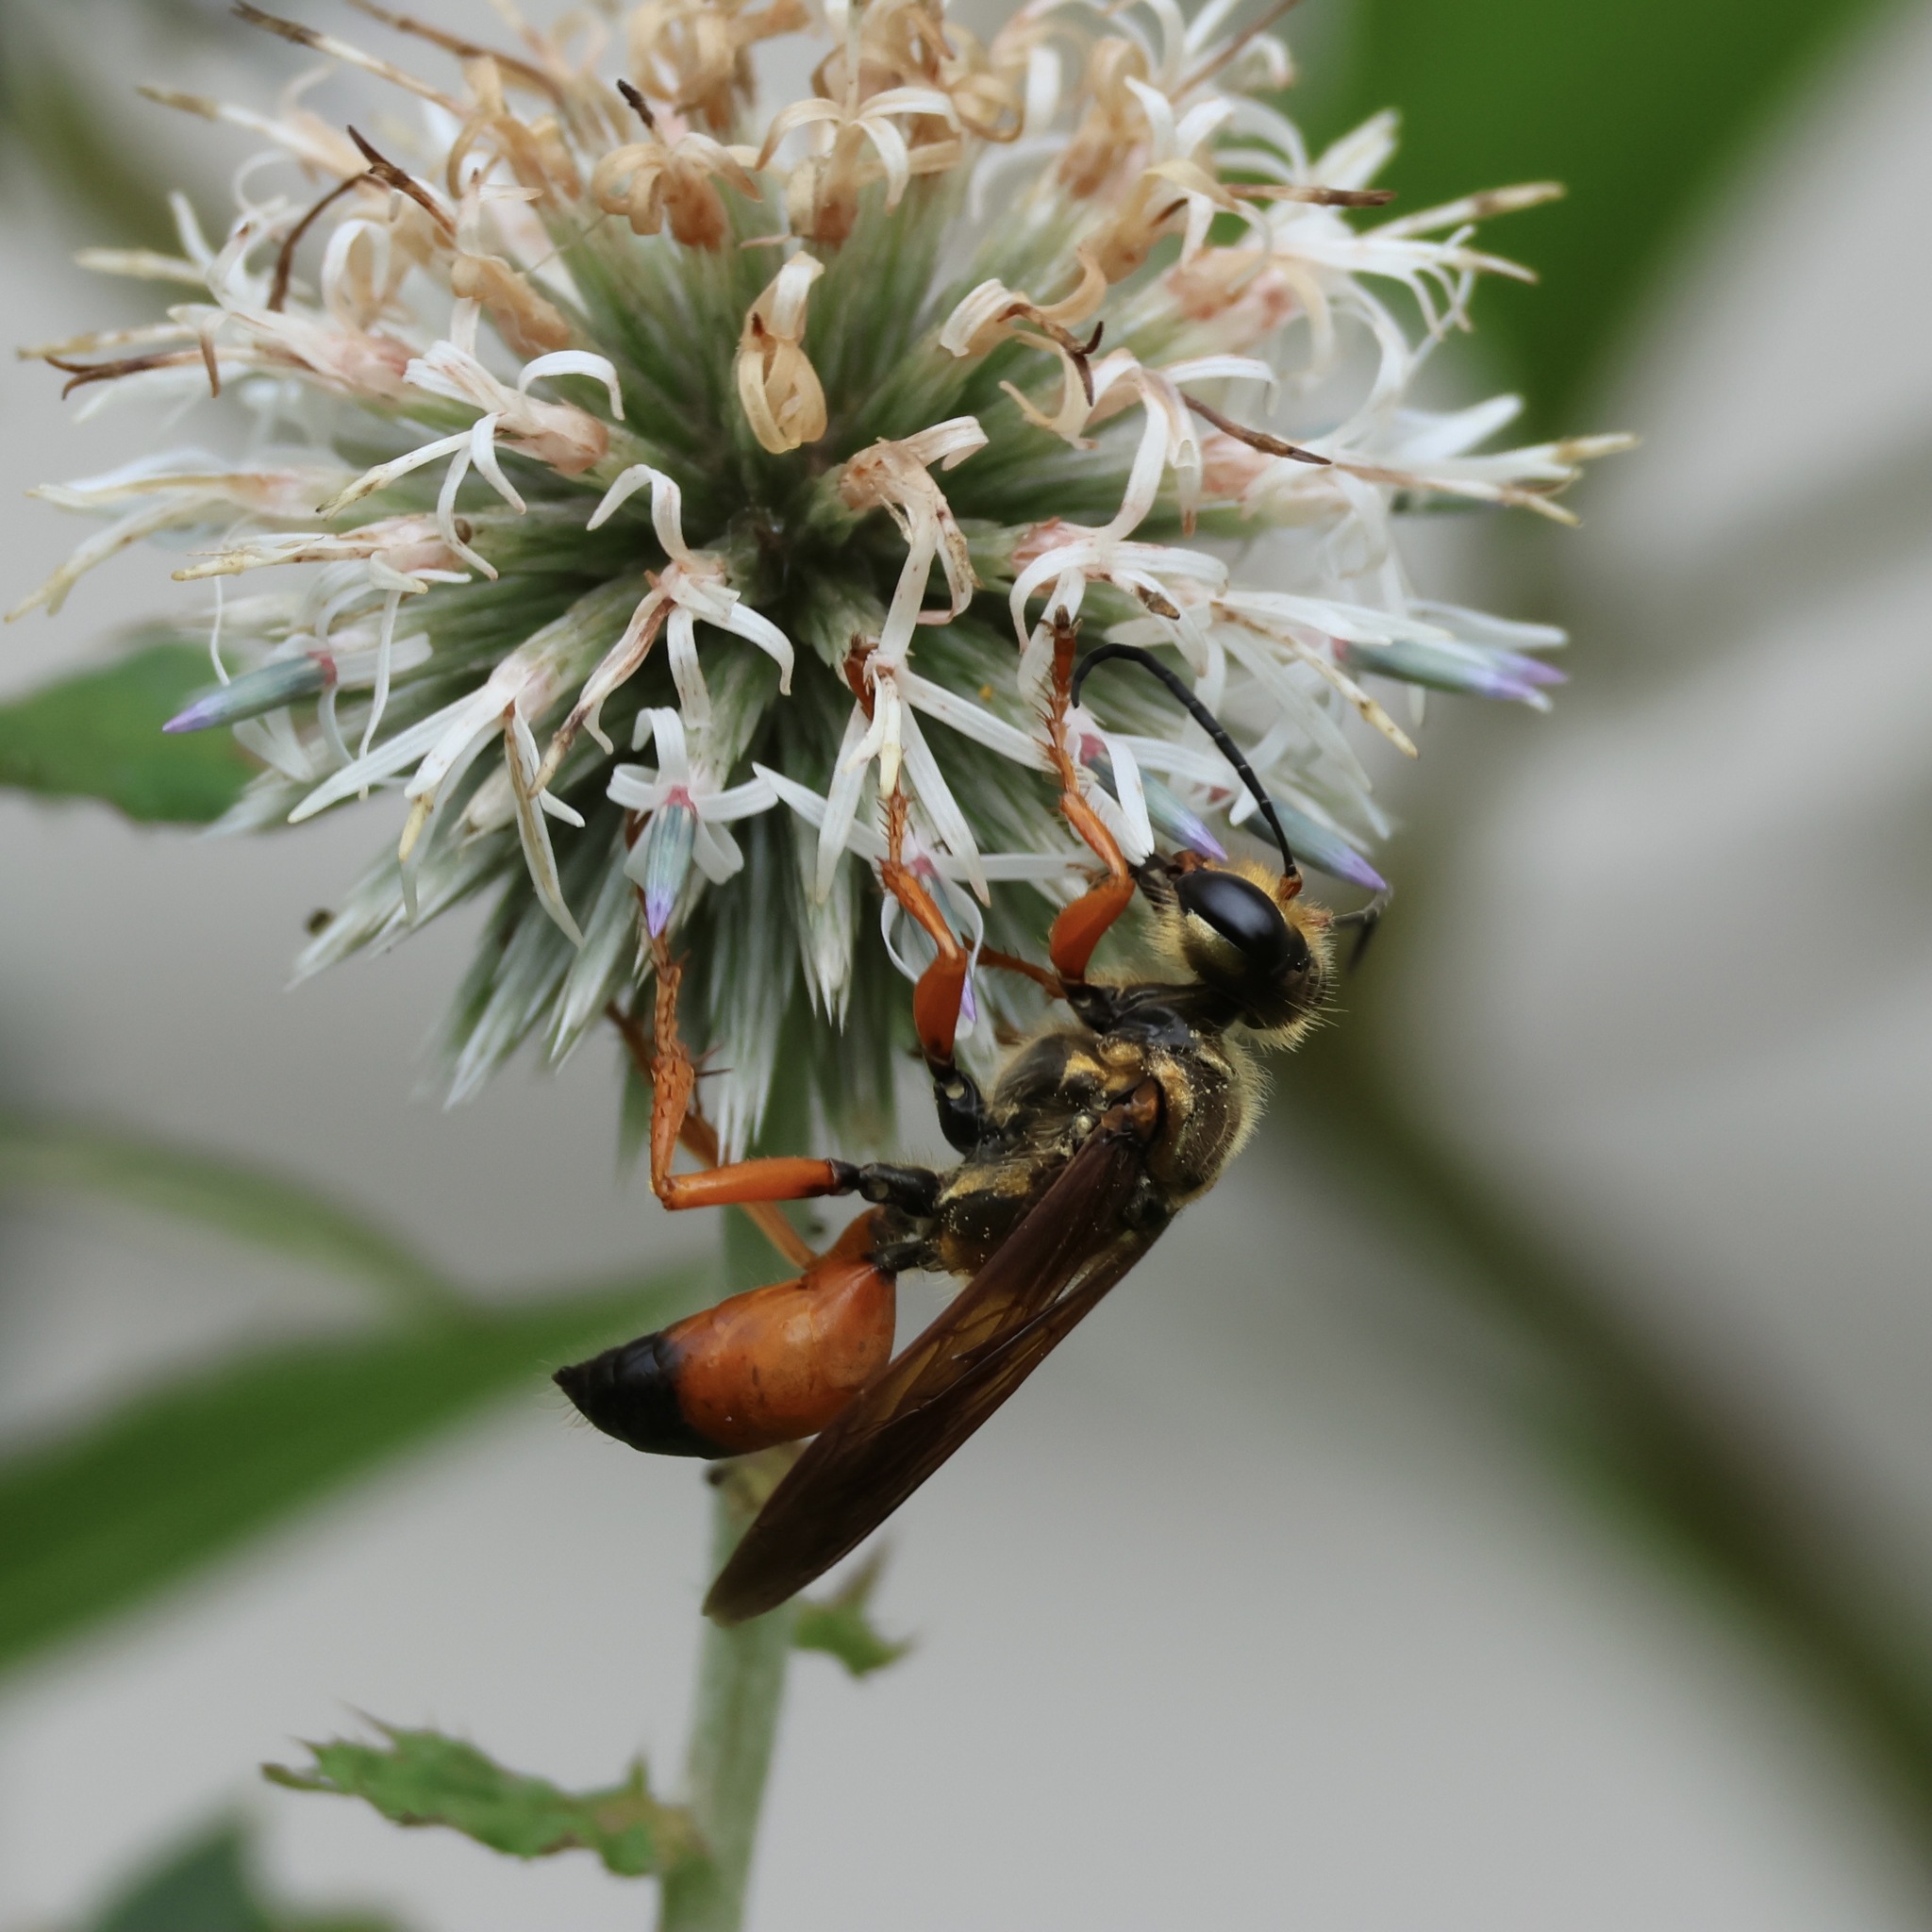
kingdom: Animalia
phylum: Arthropoda
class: Insecta
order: Hymenoptera
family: Sphecidae
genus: Sphex
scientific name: Sphex ichneumoneus
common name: Great golden digger wasp
